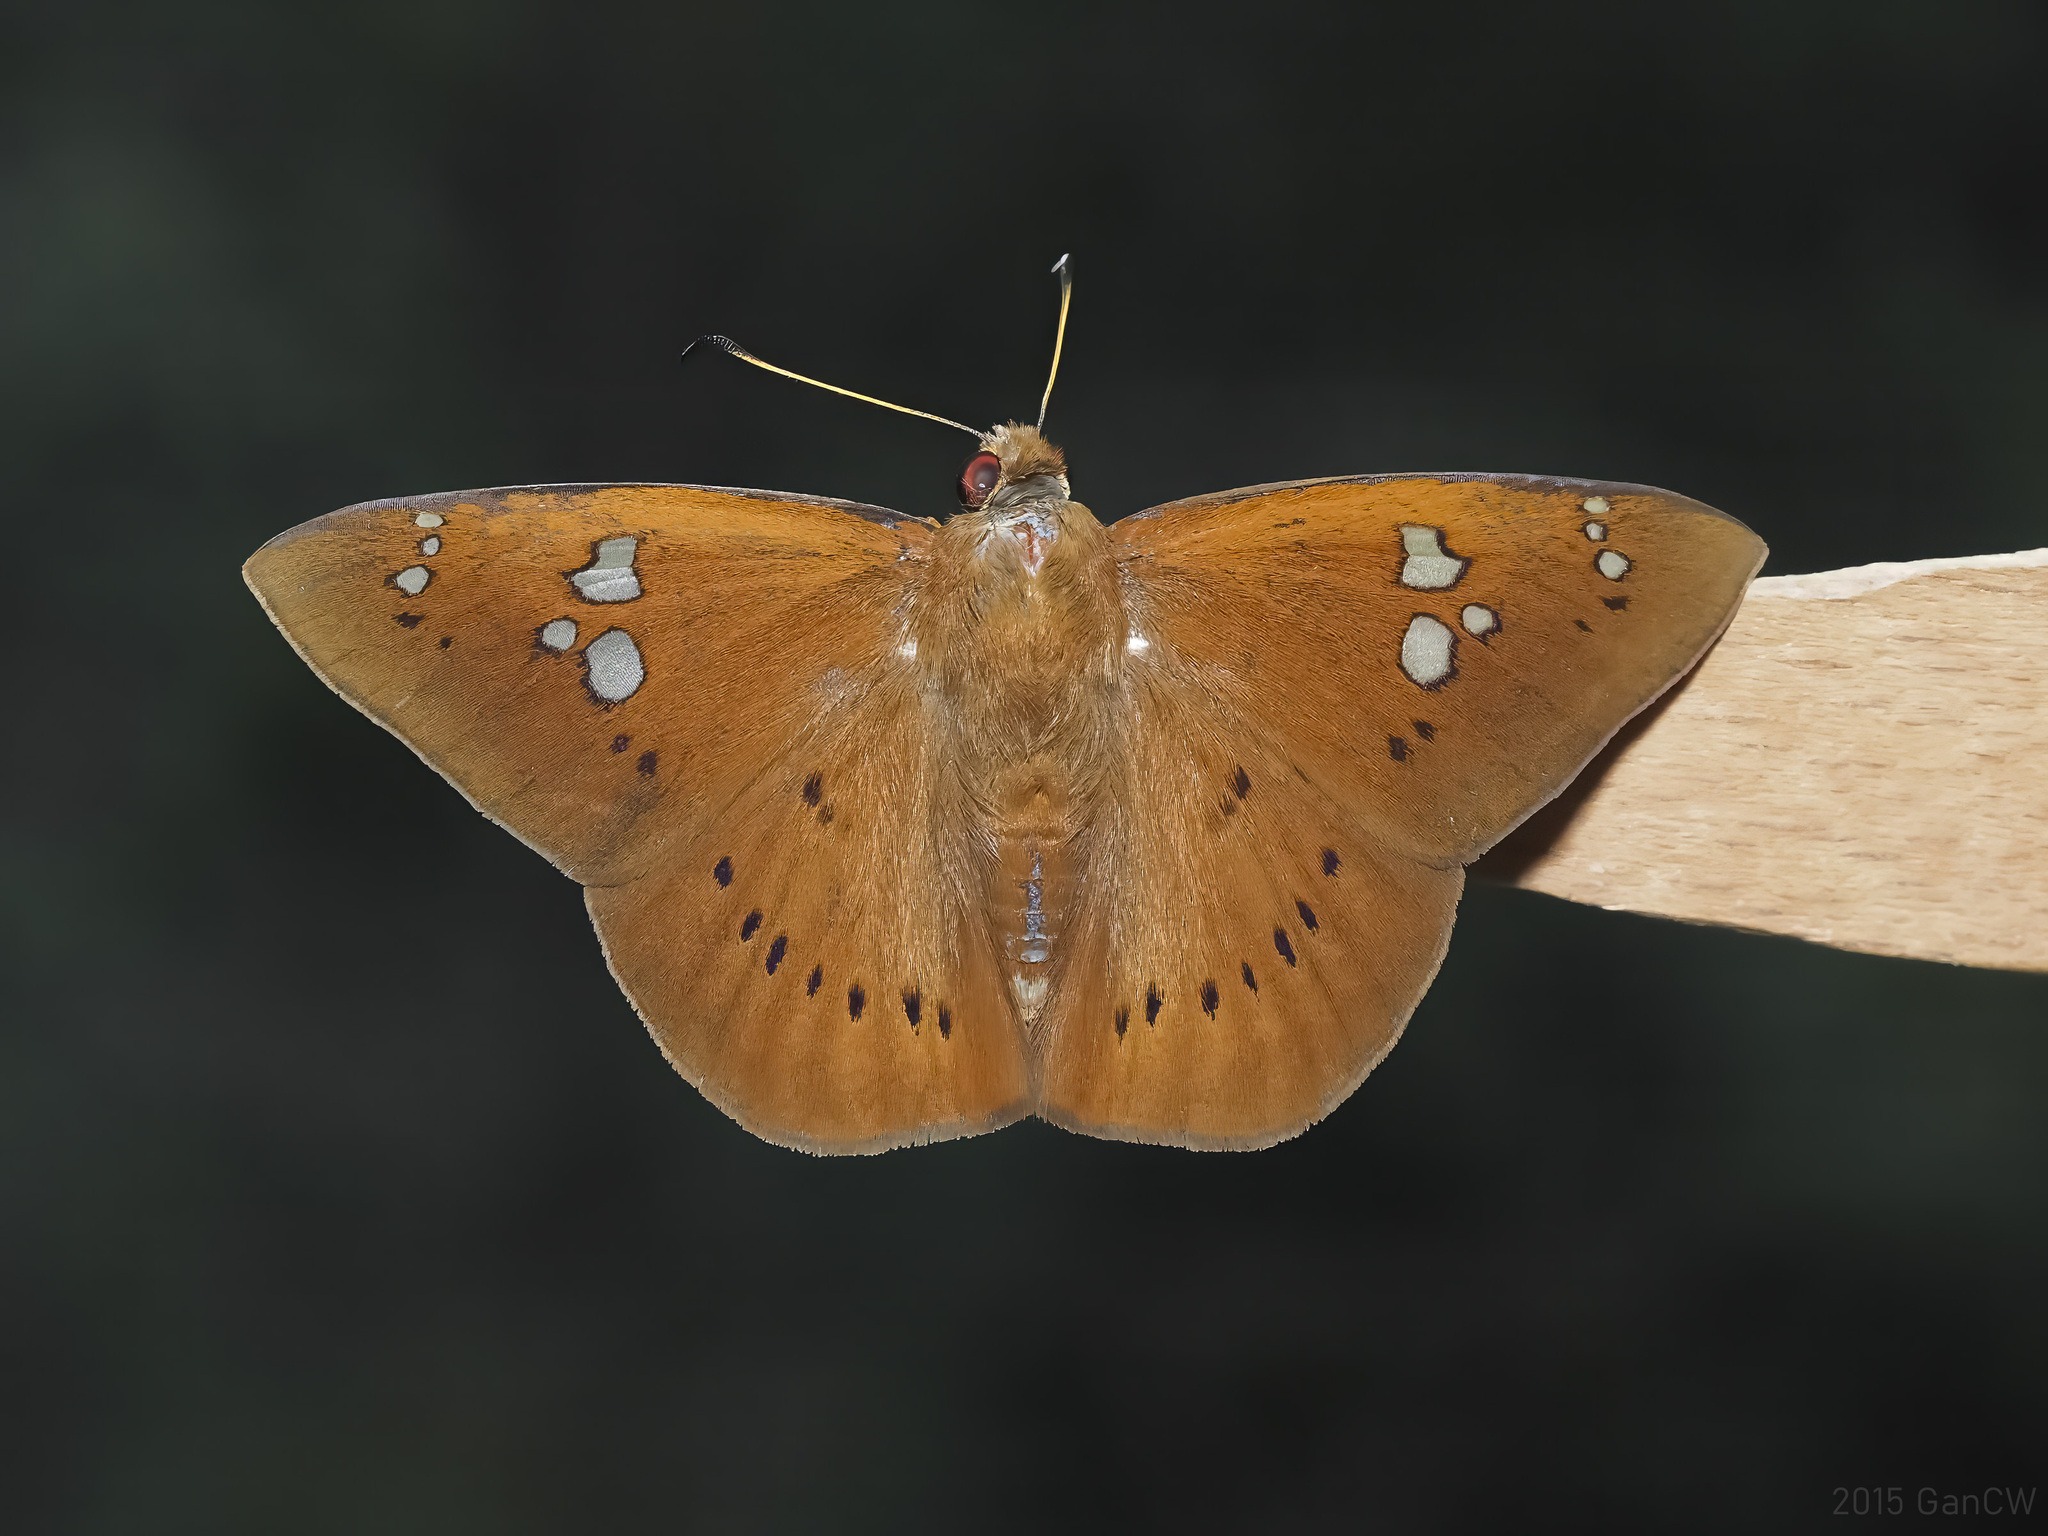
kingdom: Animalia
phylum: Arthropoda
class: Insecta
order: Lepidoptera
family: Hesperiidae
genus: Capila
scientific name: Capila phanaeus
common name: Fulvous dawnfly
